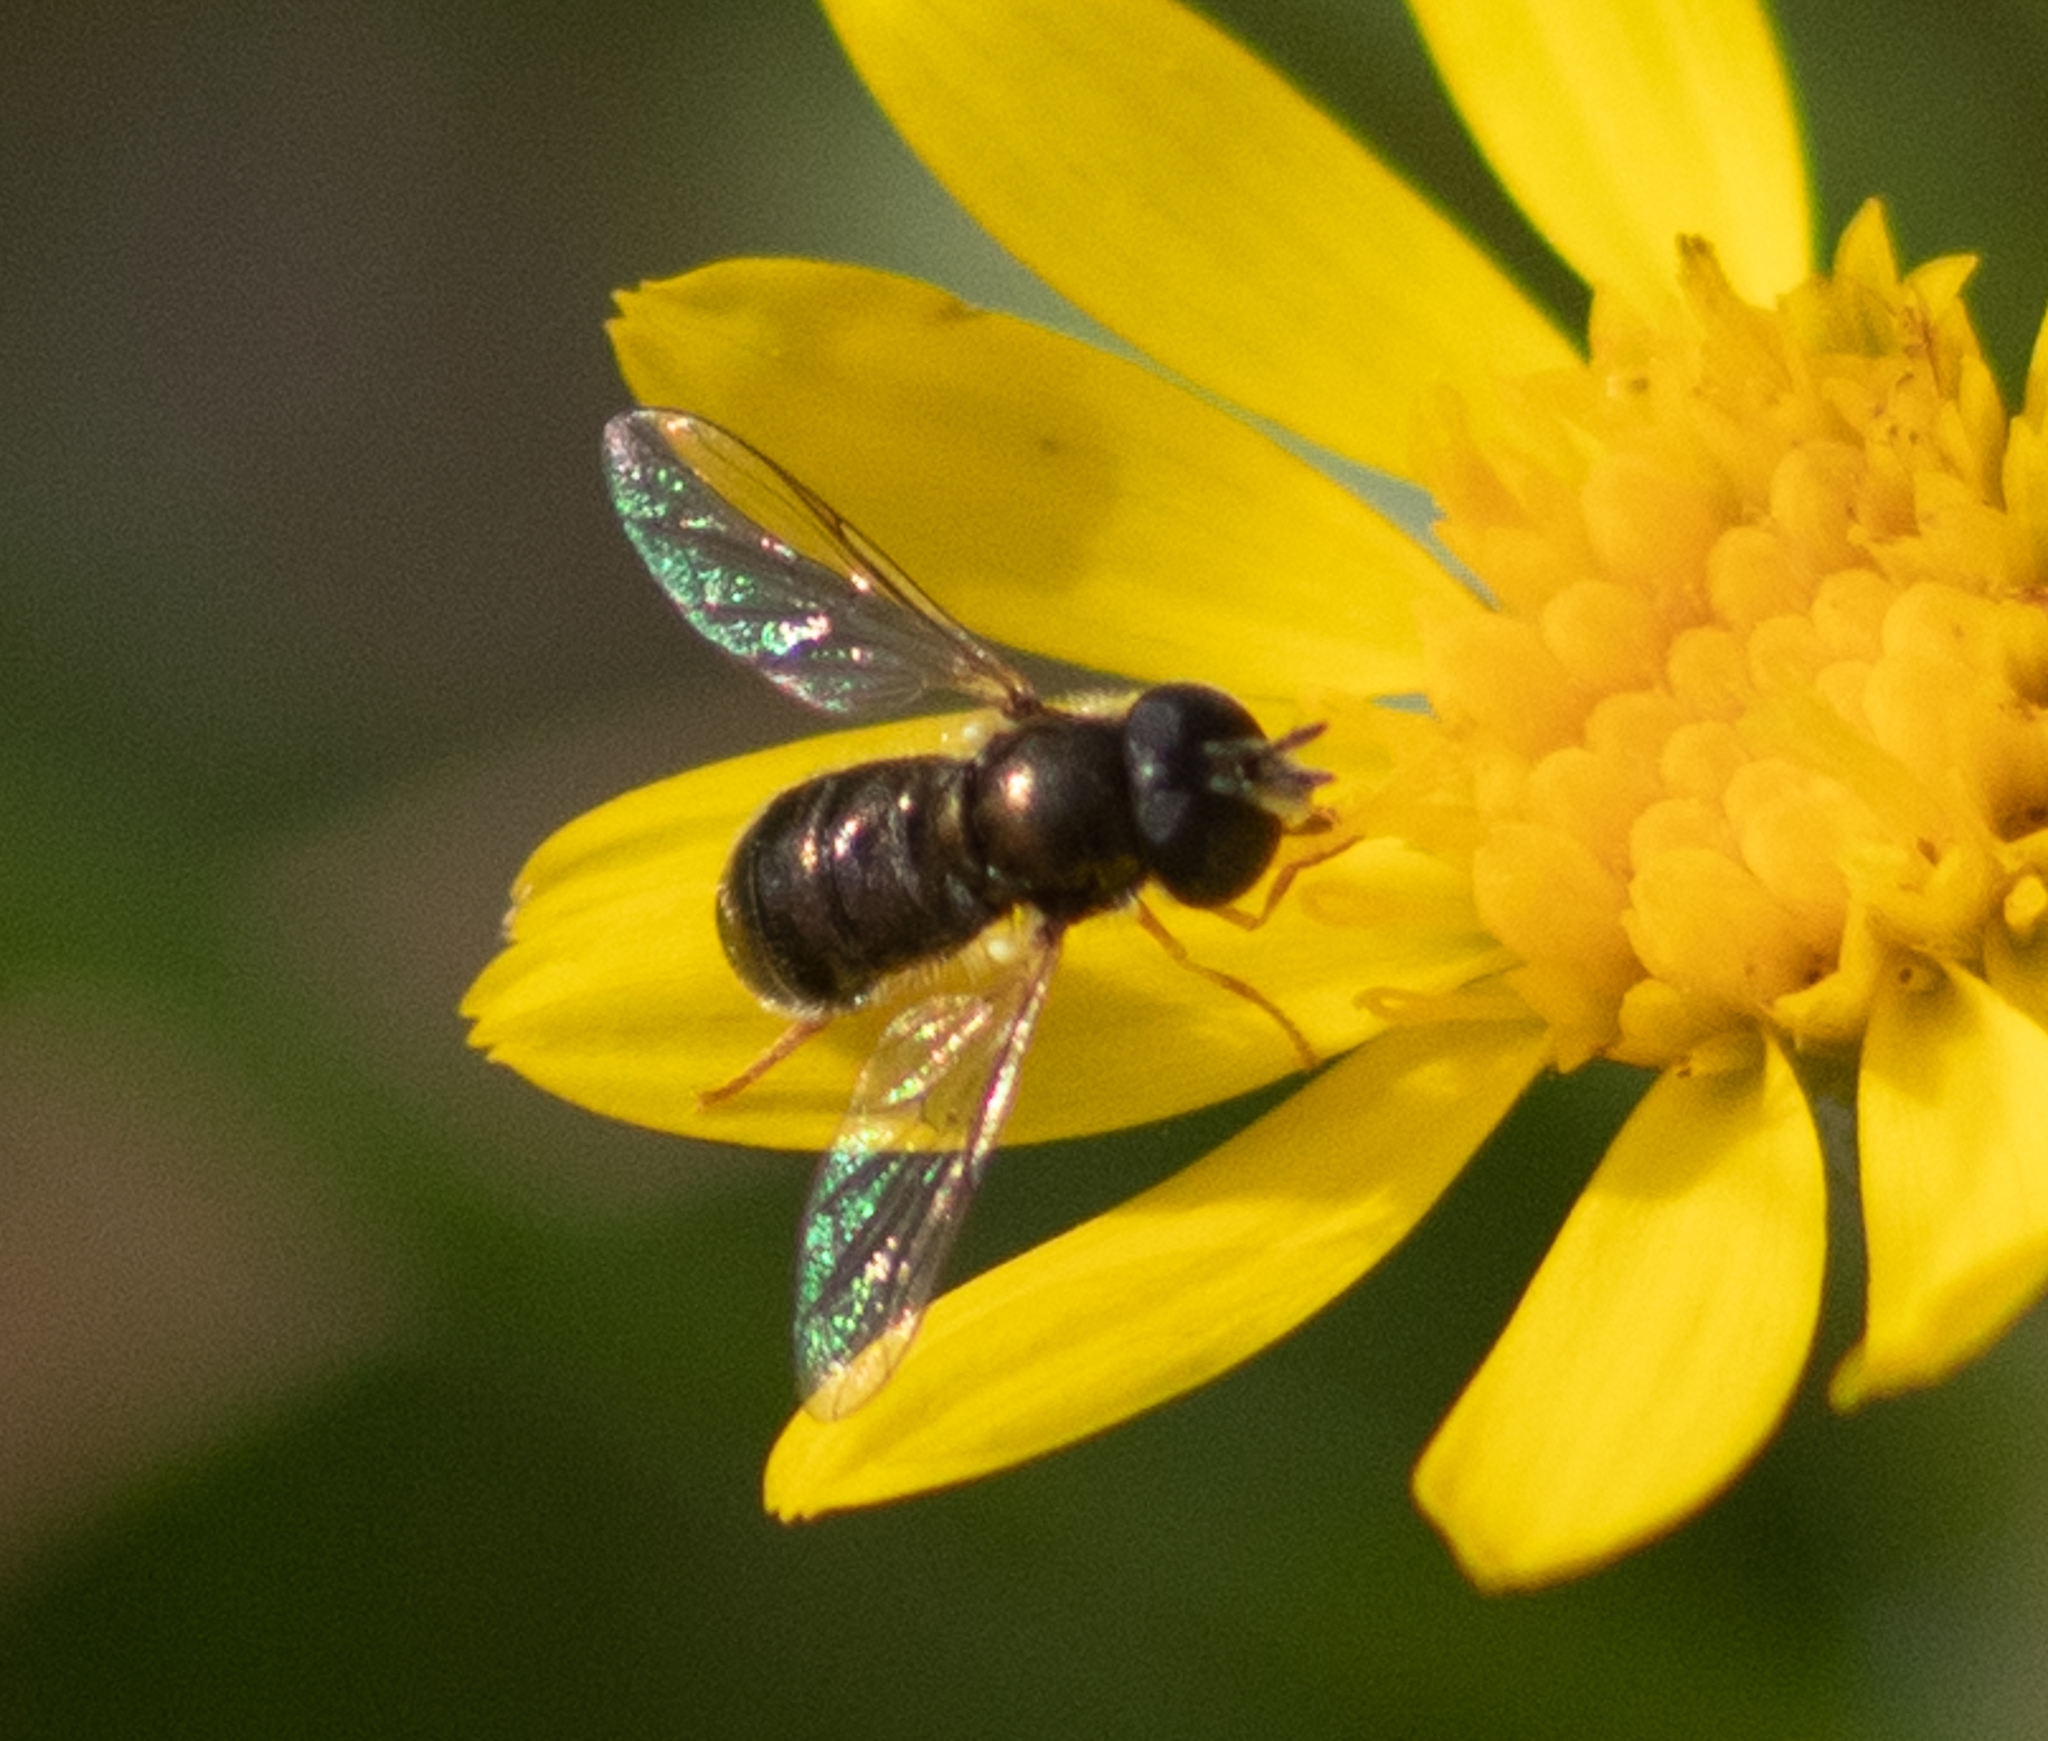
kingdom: Animalia
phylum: Arthropoda
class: Insecta
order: Diptera
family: Syrphidae
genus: Paragus
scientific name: Paragus haemorrhous
